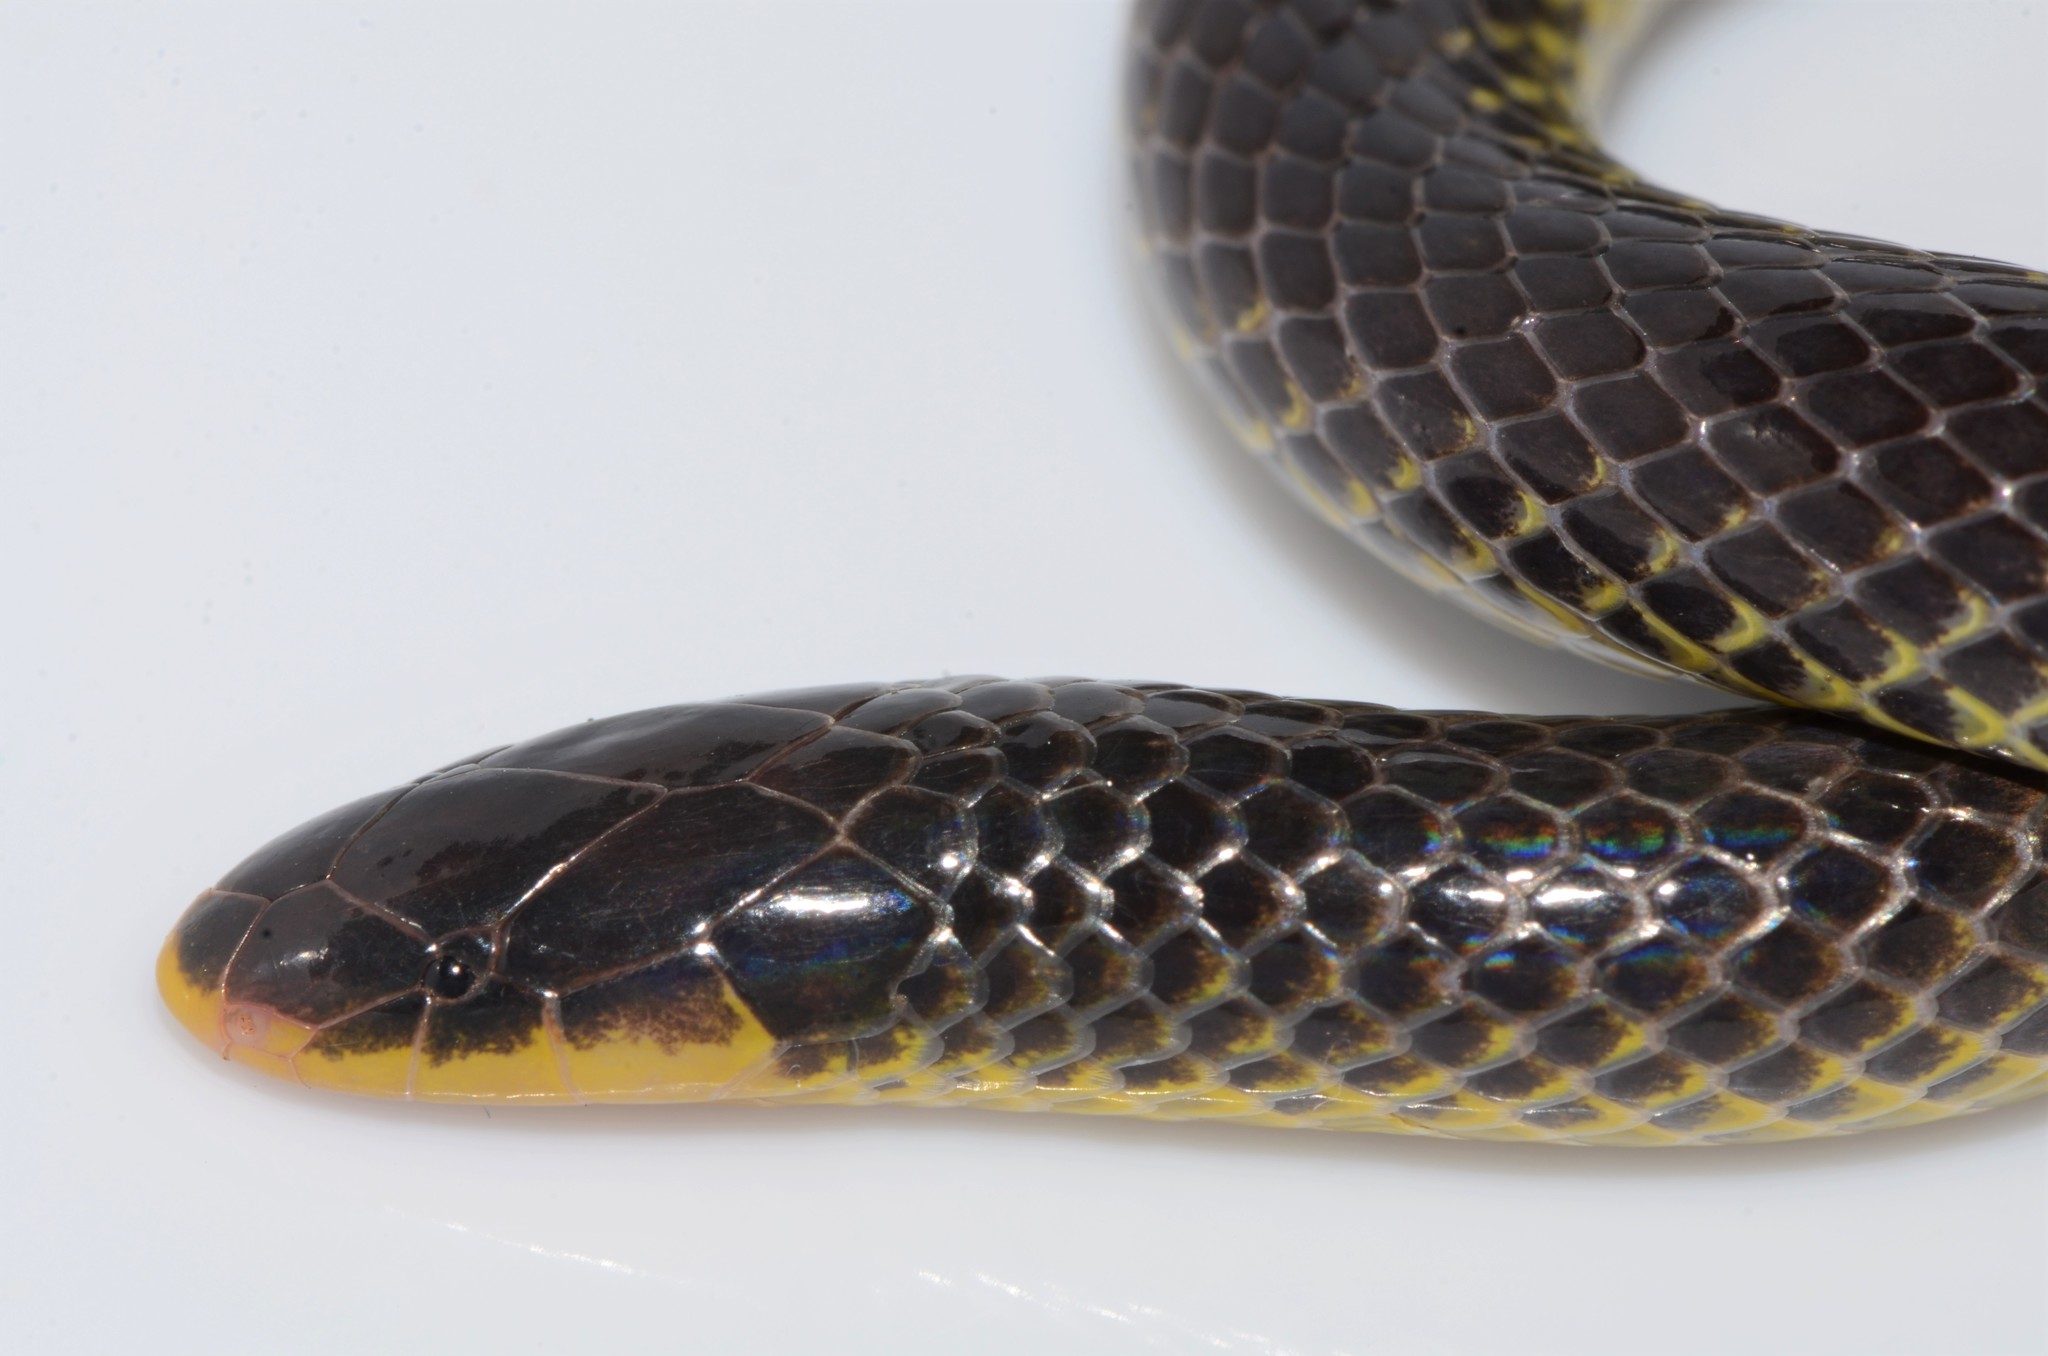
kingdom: Animalia
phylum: Chordata
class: Squamata
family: Atractaspididae
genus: Amblyodipsas
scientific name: Amblyodipsas microphthalma
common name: Eastern purple-glossed snake
